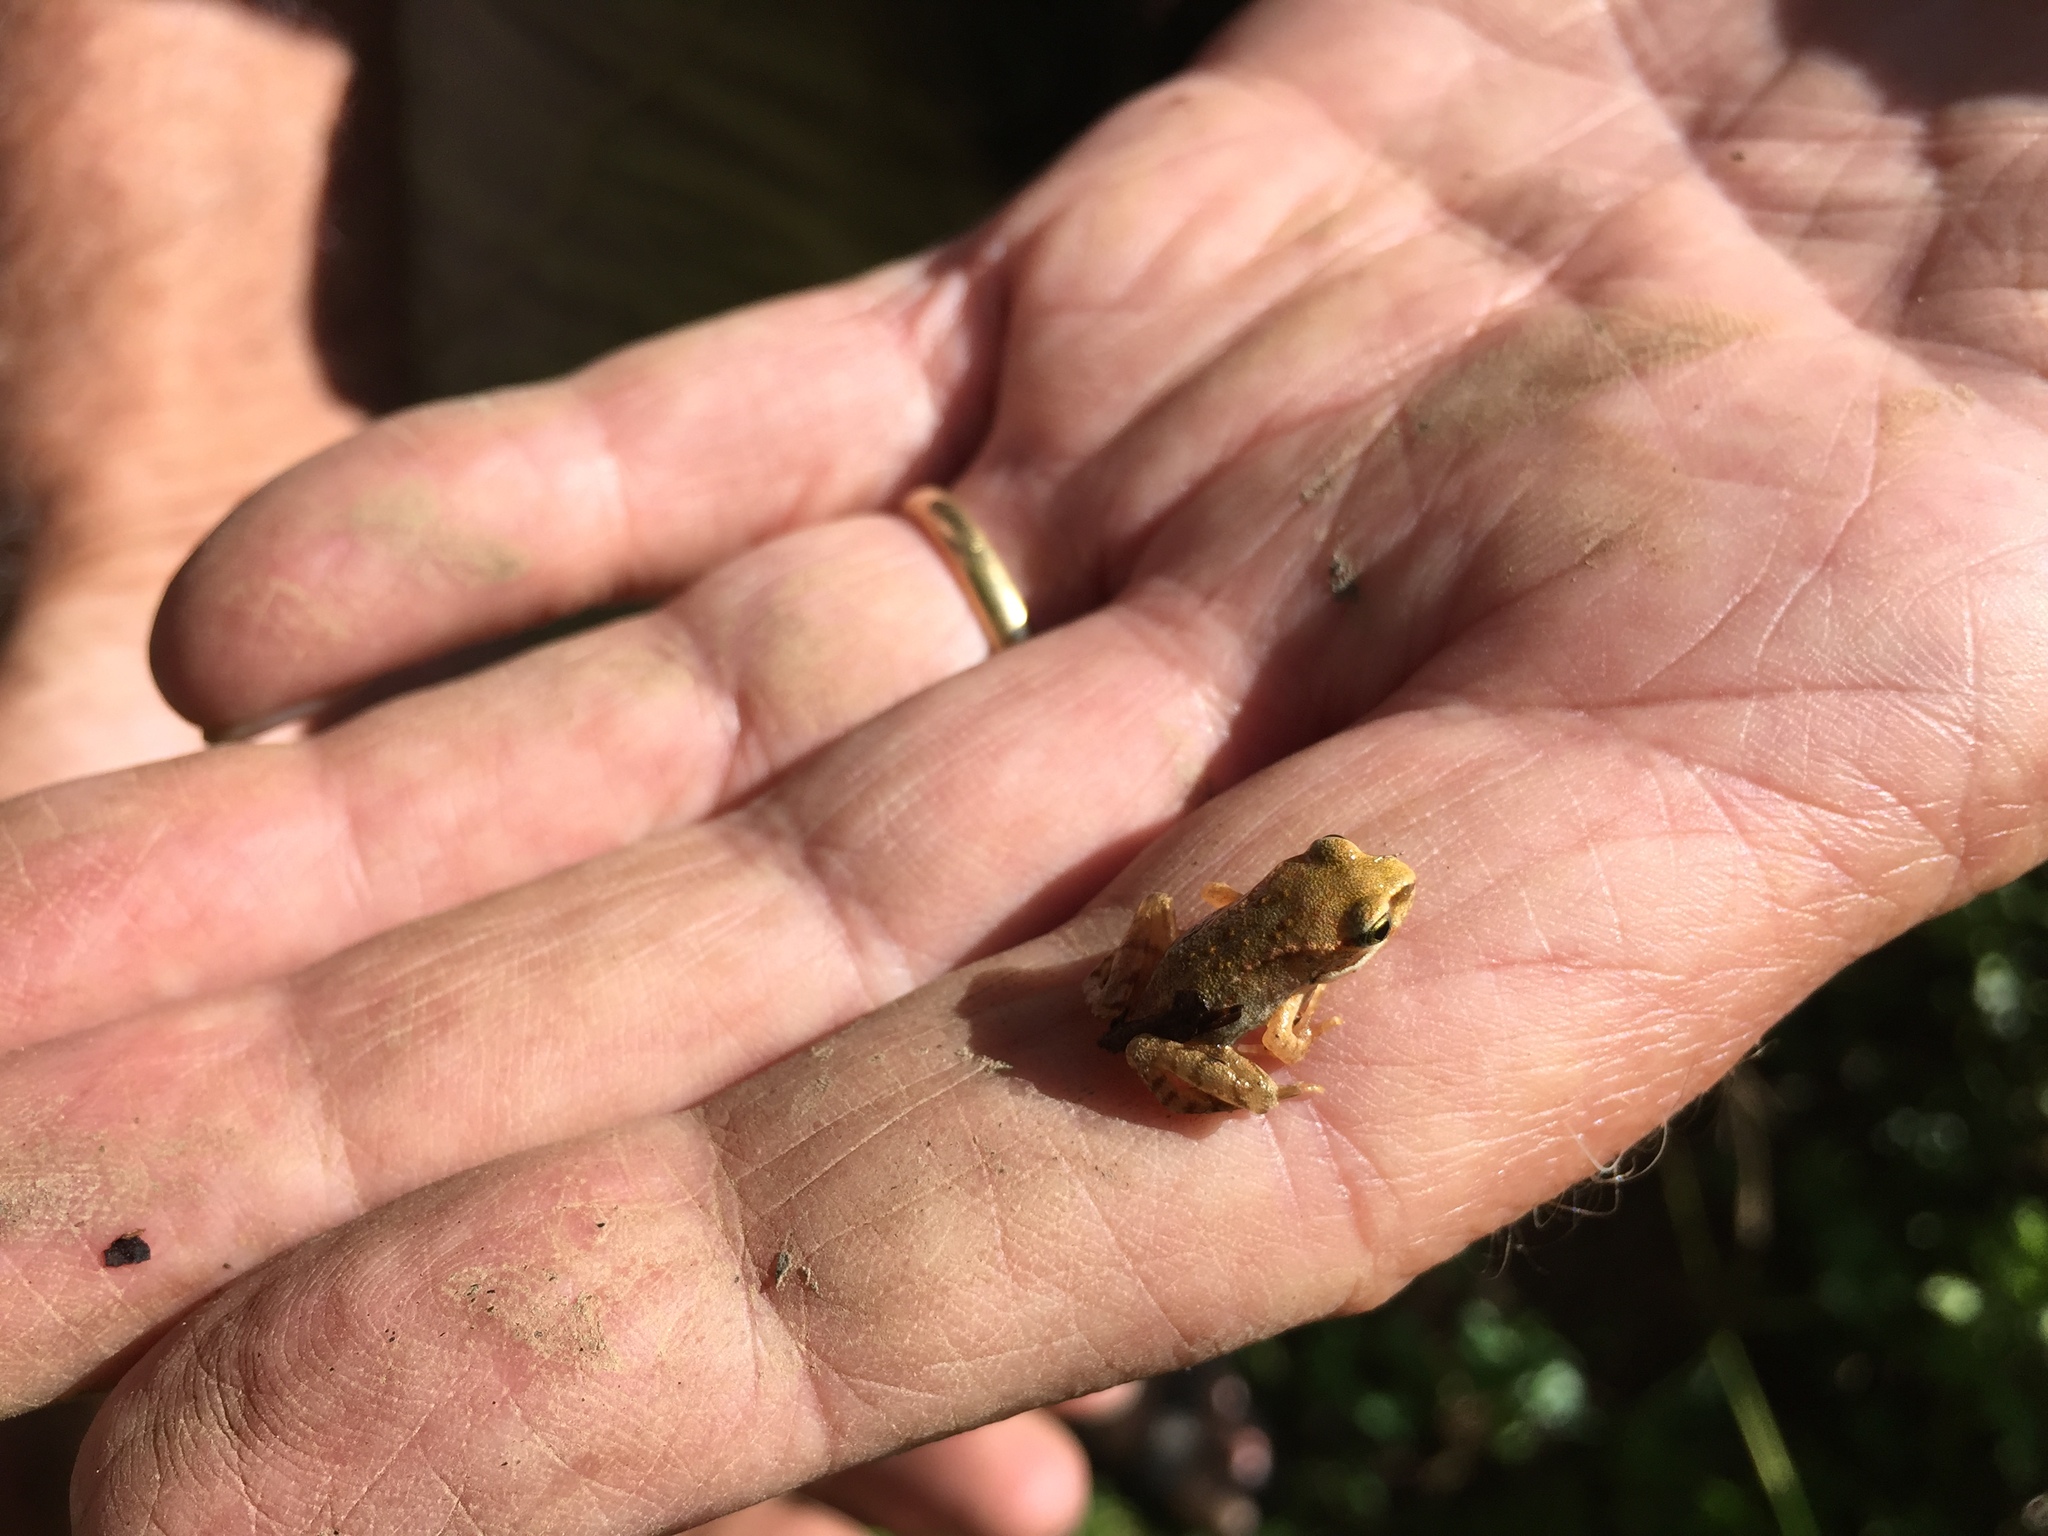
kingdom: Animalia
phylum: Chordata
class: Amphibia
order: Anura
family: Ranidae
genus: Rana
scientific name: Rana temporaria
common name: Common frog
